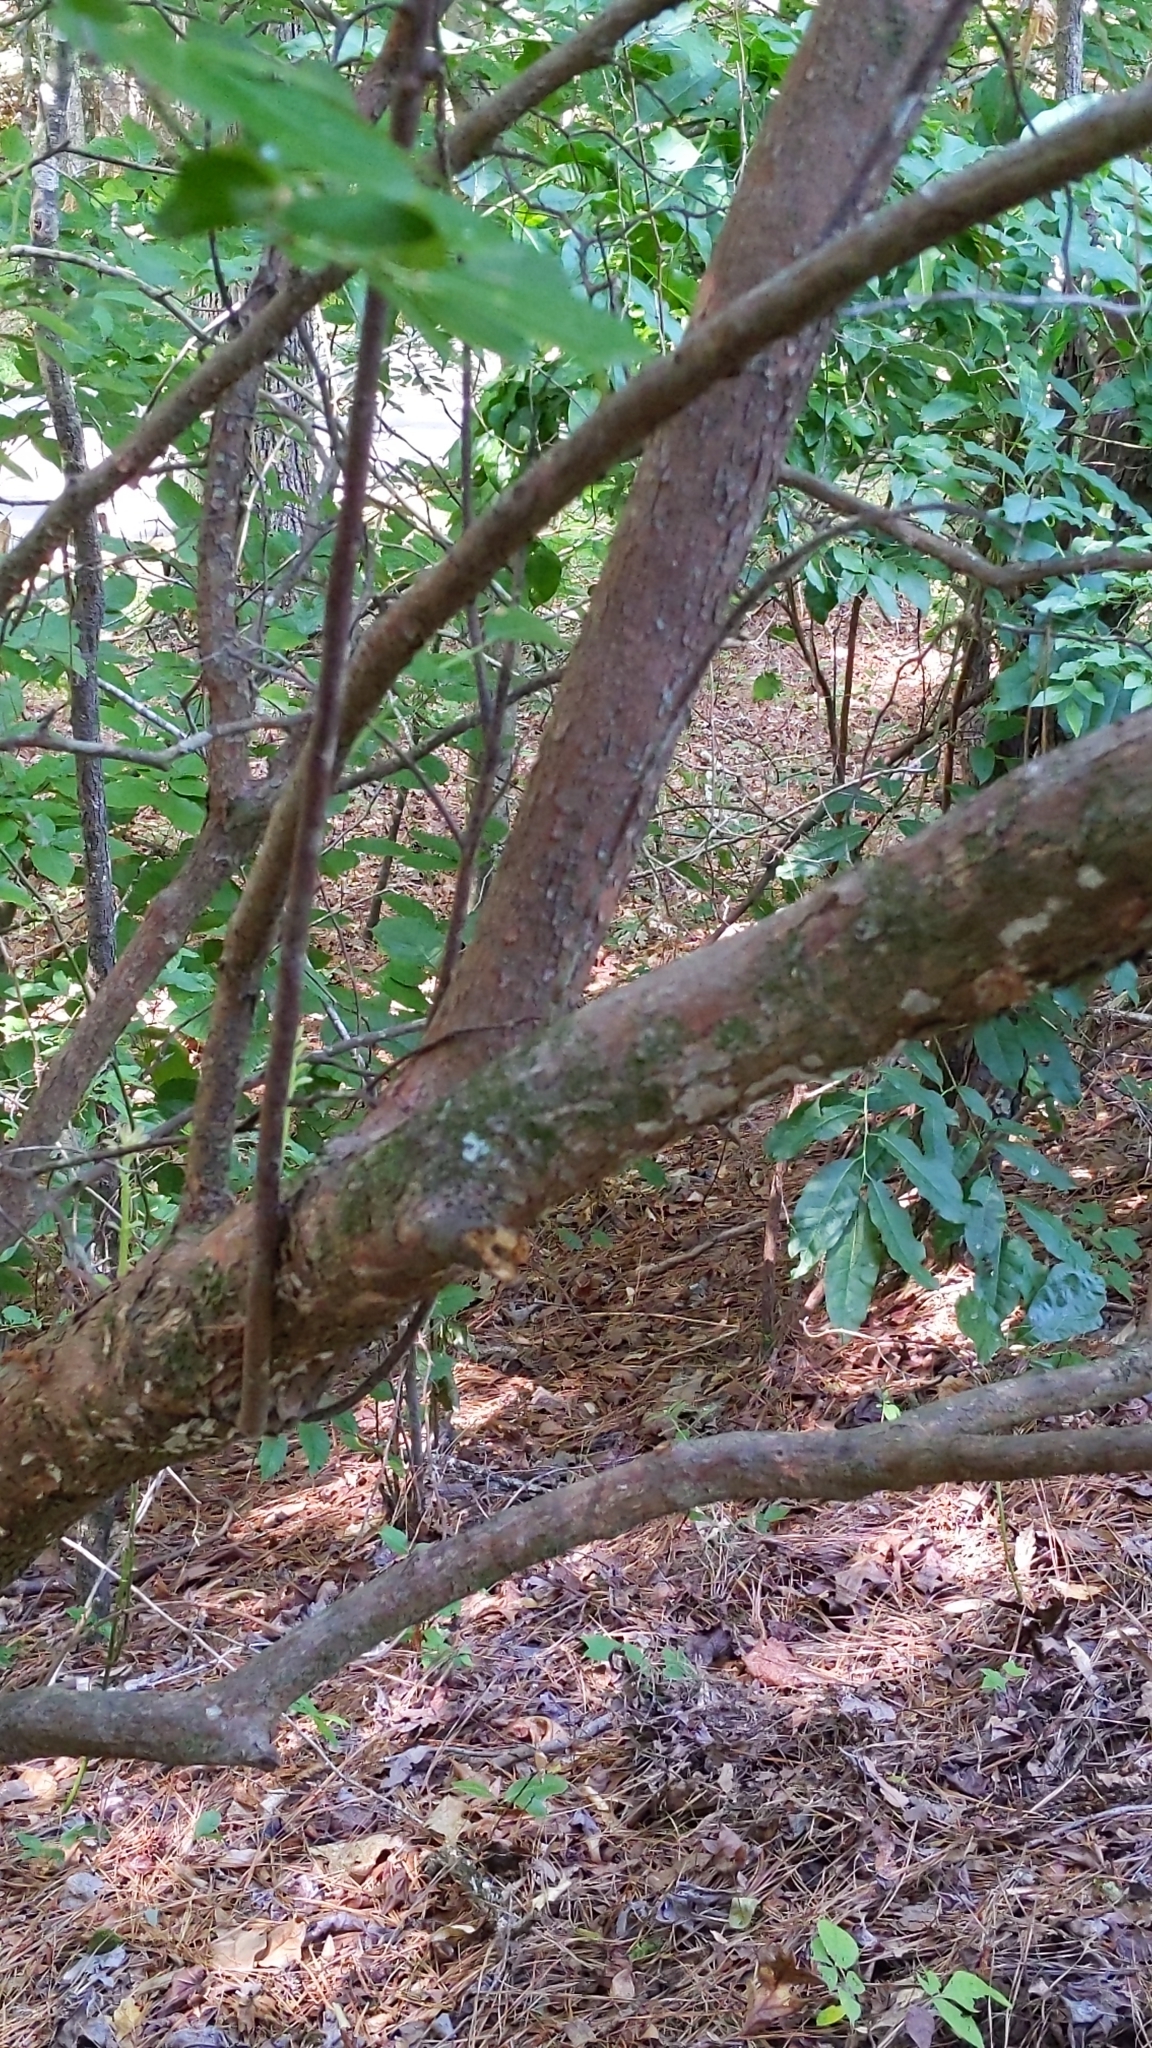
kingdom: Plantae
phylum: Tracheophyta
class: Magnoliopsida
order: Ericales
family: Ericaceae
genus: Vaccinium
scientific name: Vaccinium arboreum
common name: Farkleberry
